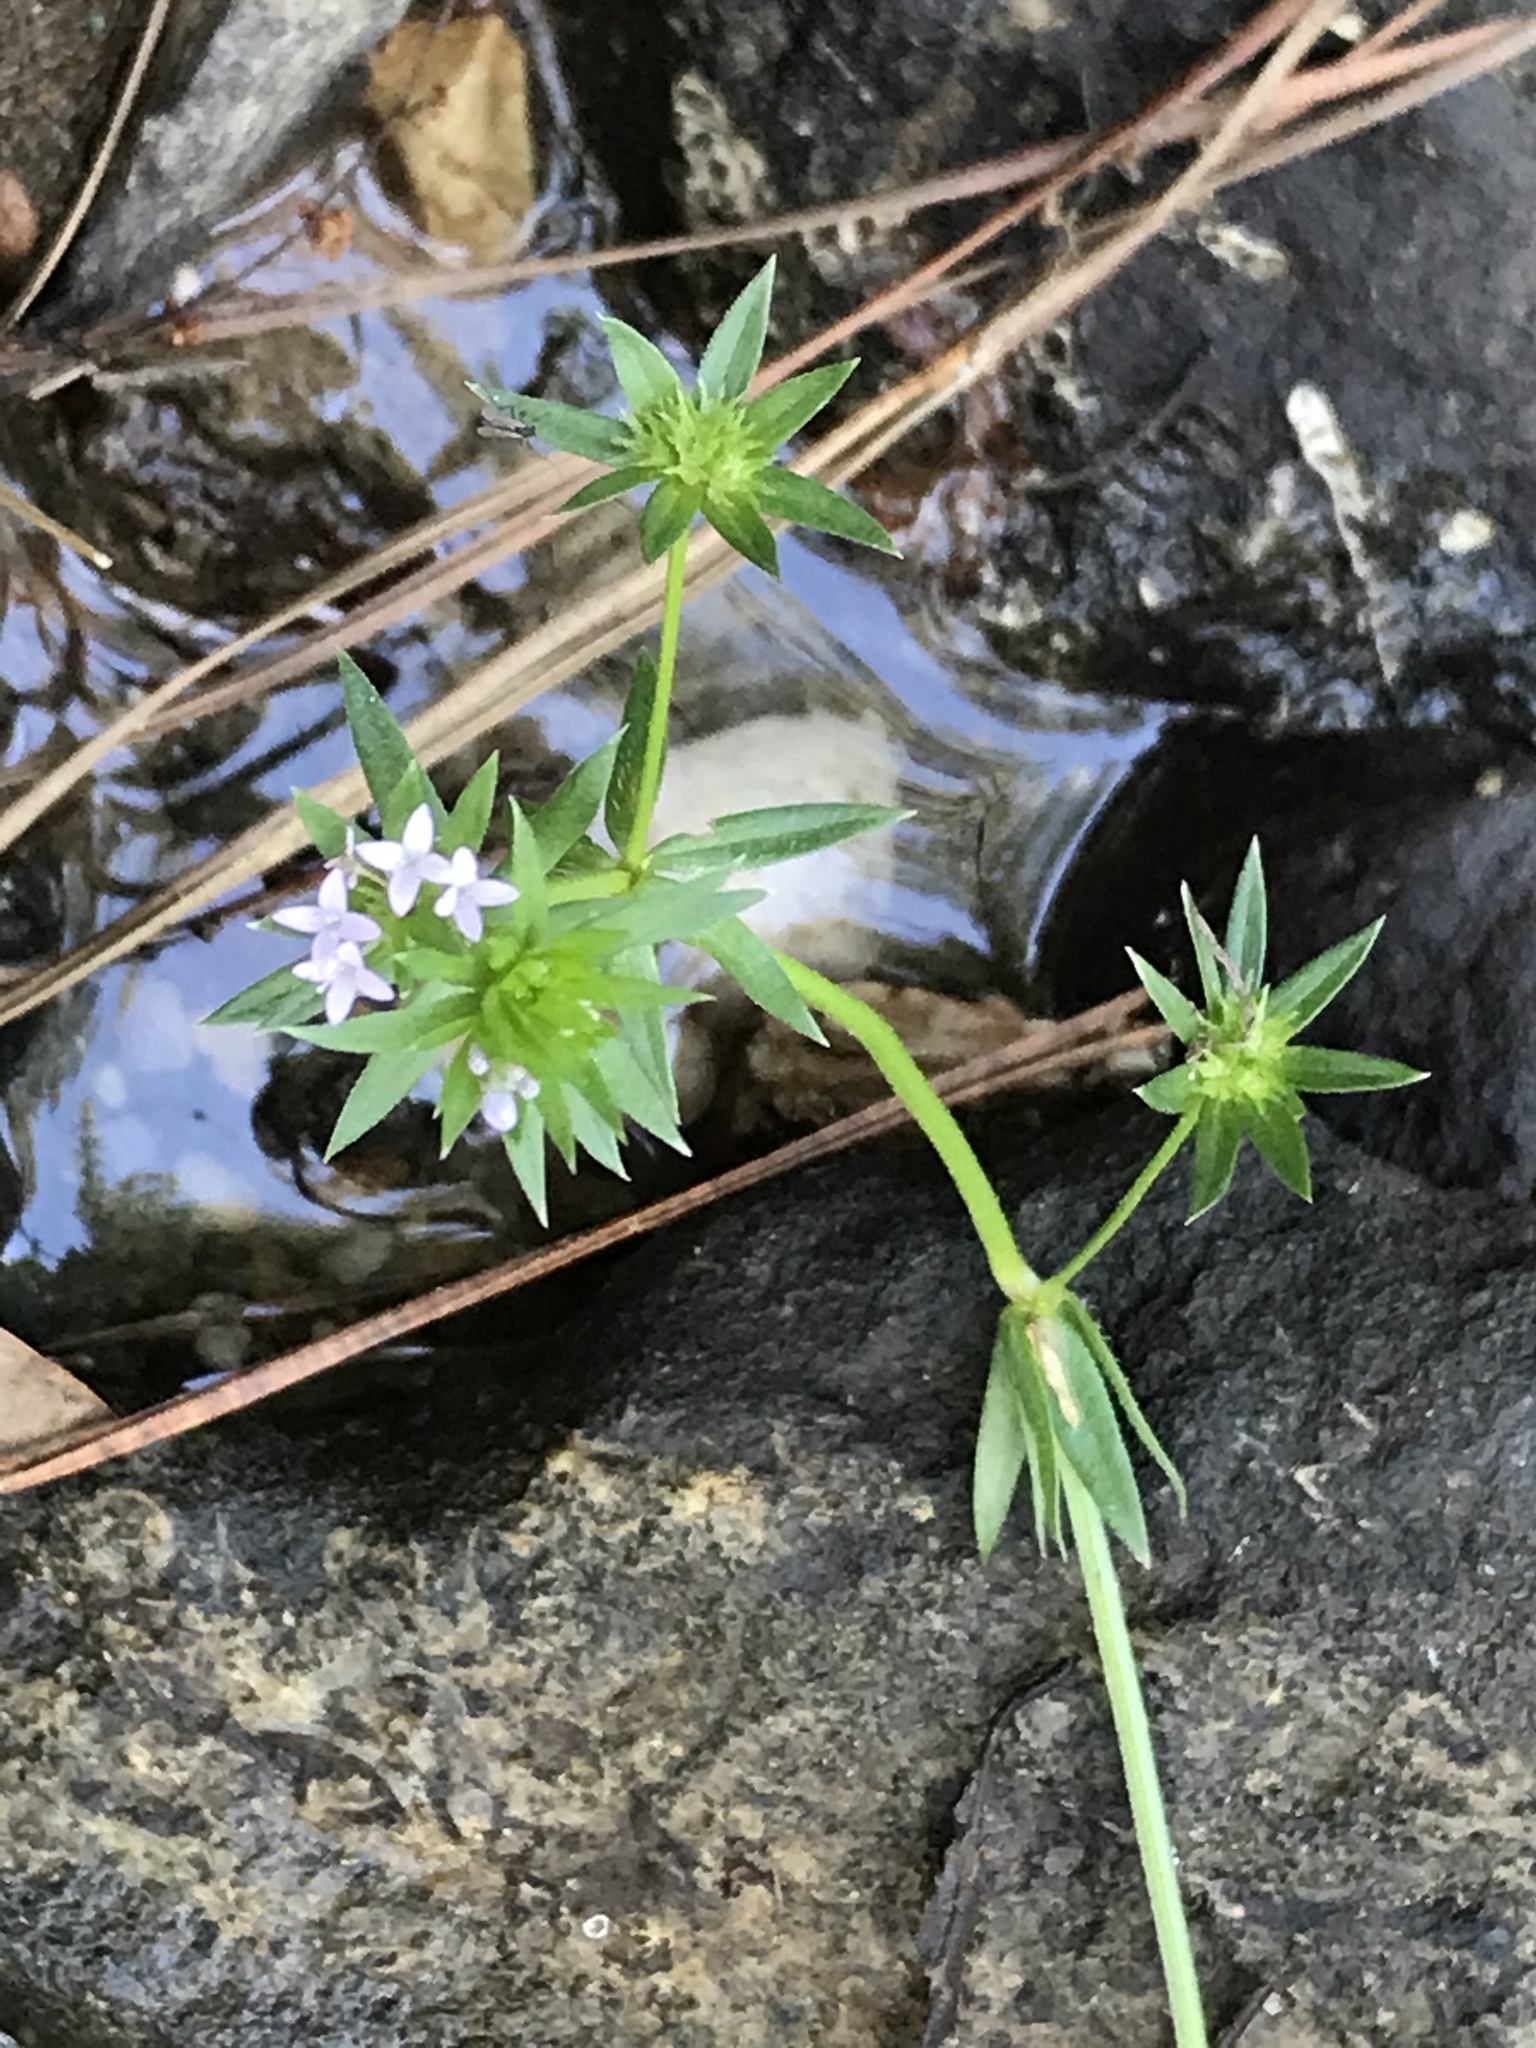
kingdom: Plantae
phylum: Tracheophyta
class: Magnoliopsida
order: Gentianales
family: Rubiaceae
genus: Sherardia
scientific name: Sherardia arvensis
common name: Field madder
